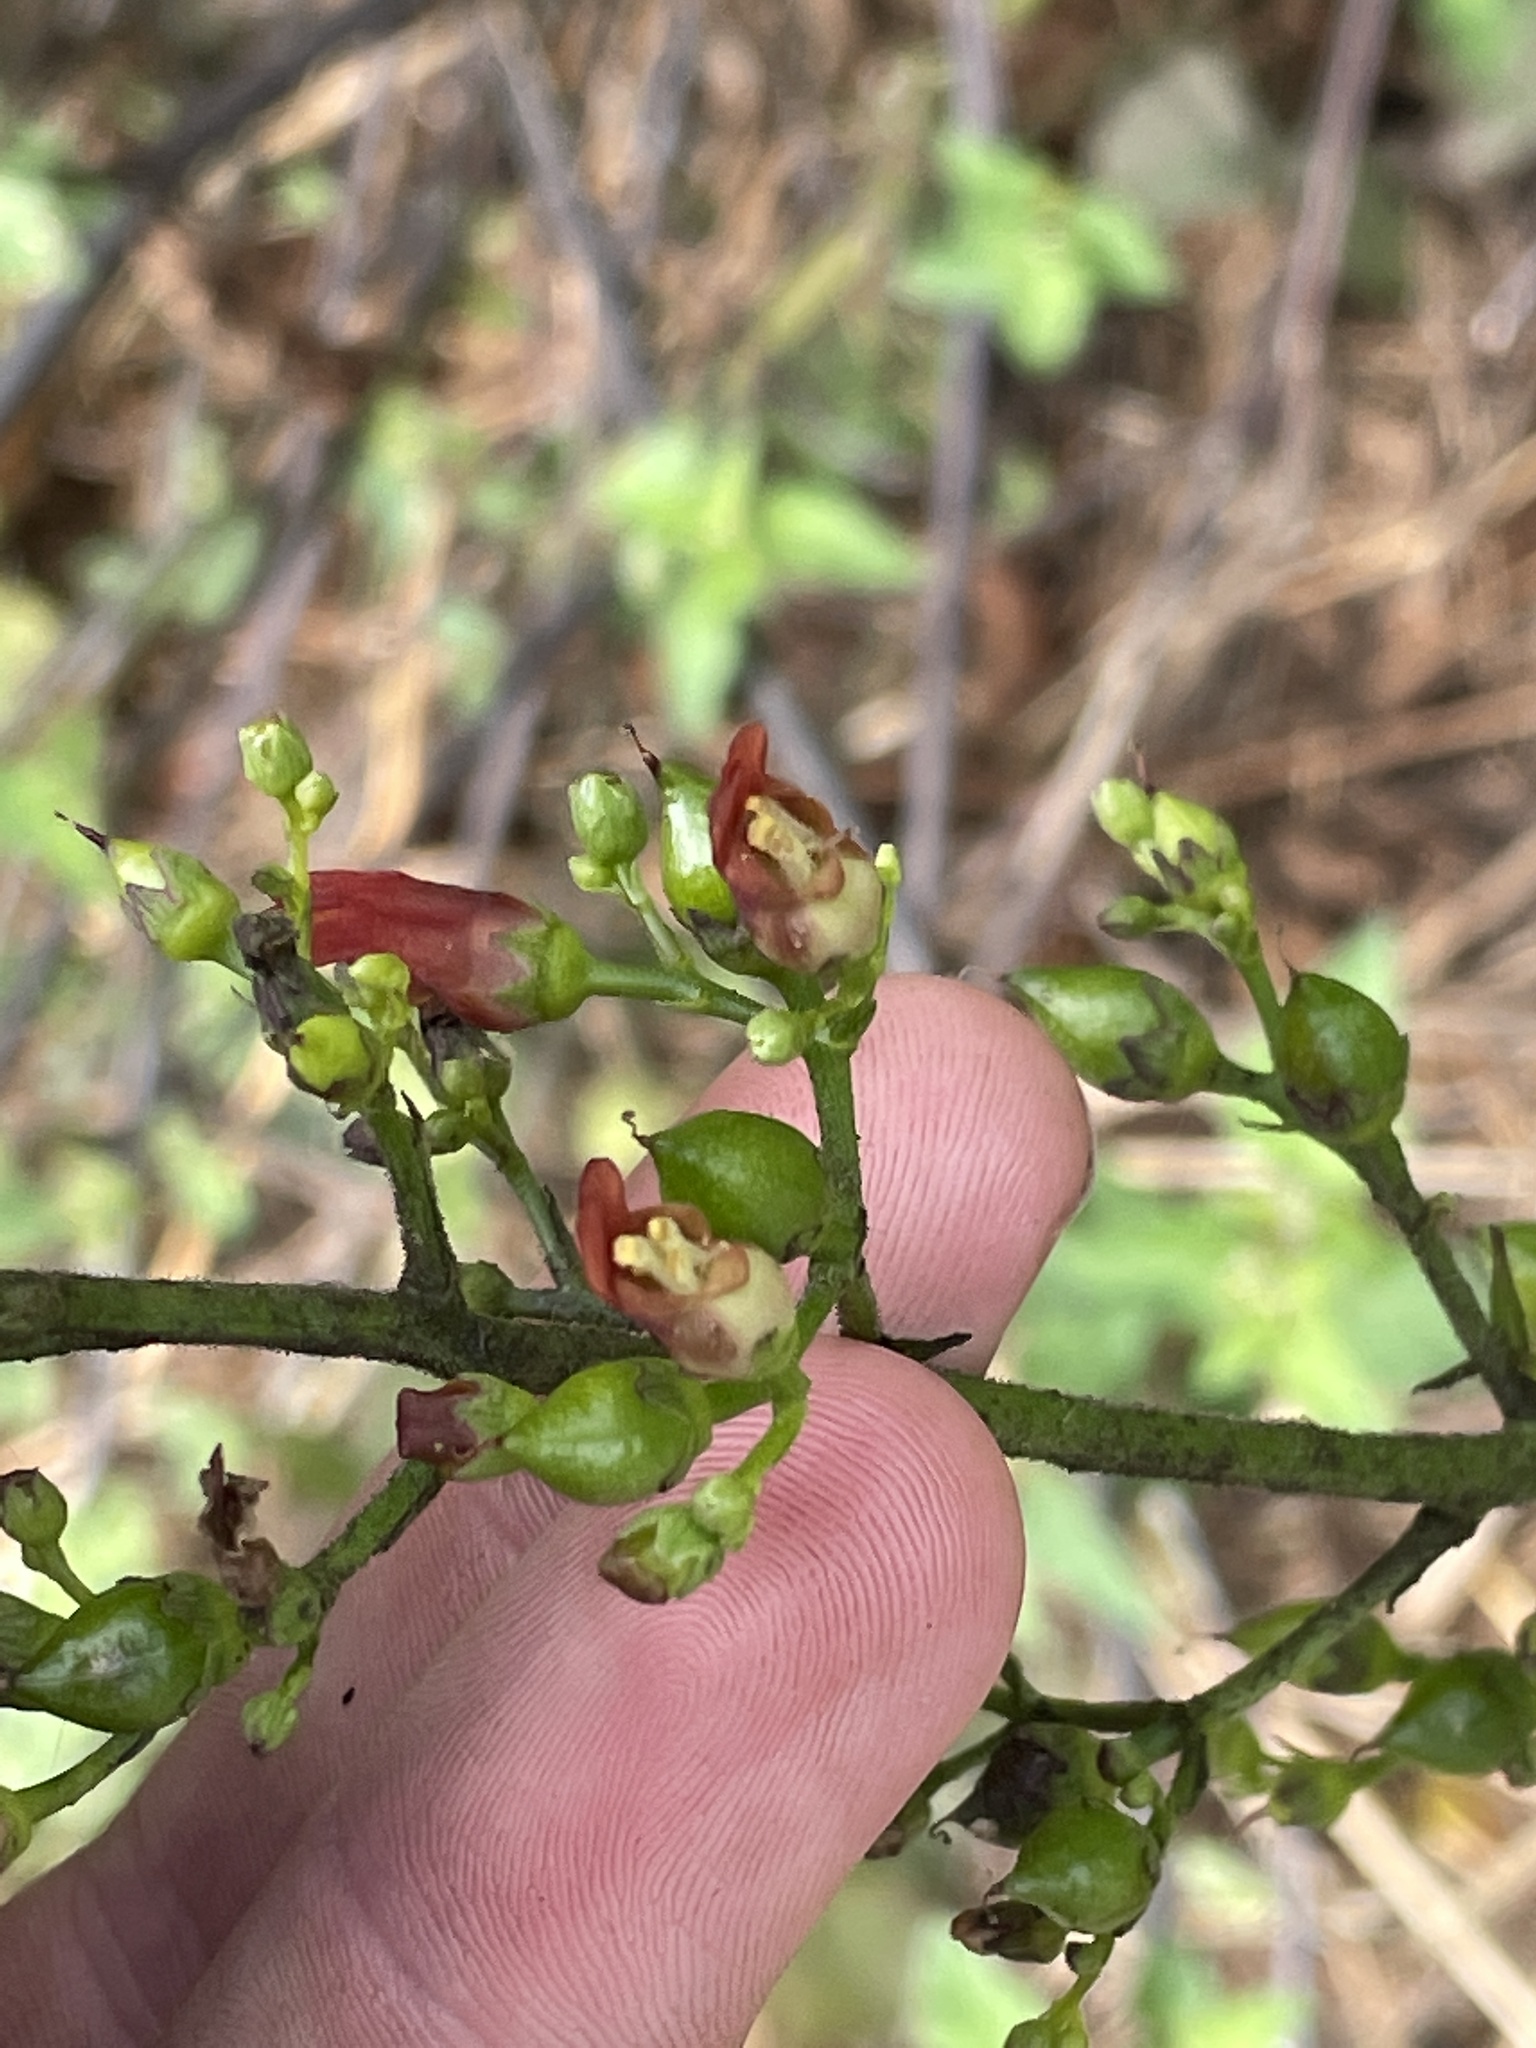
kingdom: Plantae
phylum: Tracheophyta
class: Magnoliopsida
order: Lamiales
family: Scrophulariaceae
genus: Scrophularia
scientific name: Scrophularia californica
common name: California figwort
